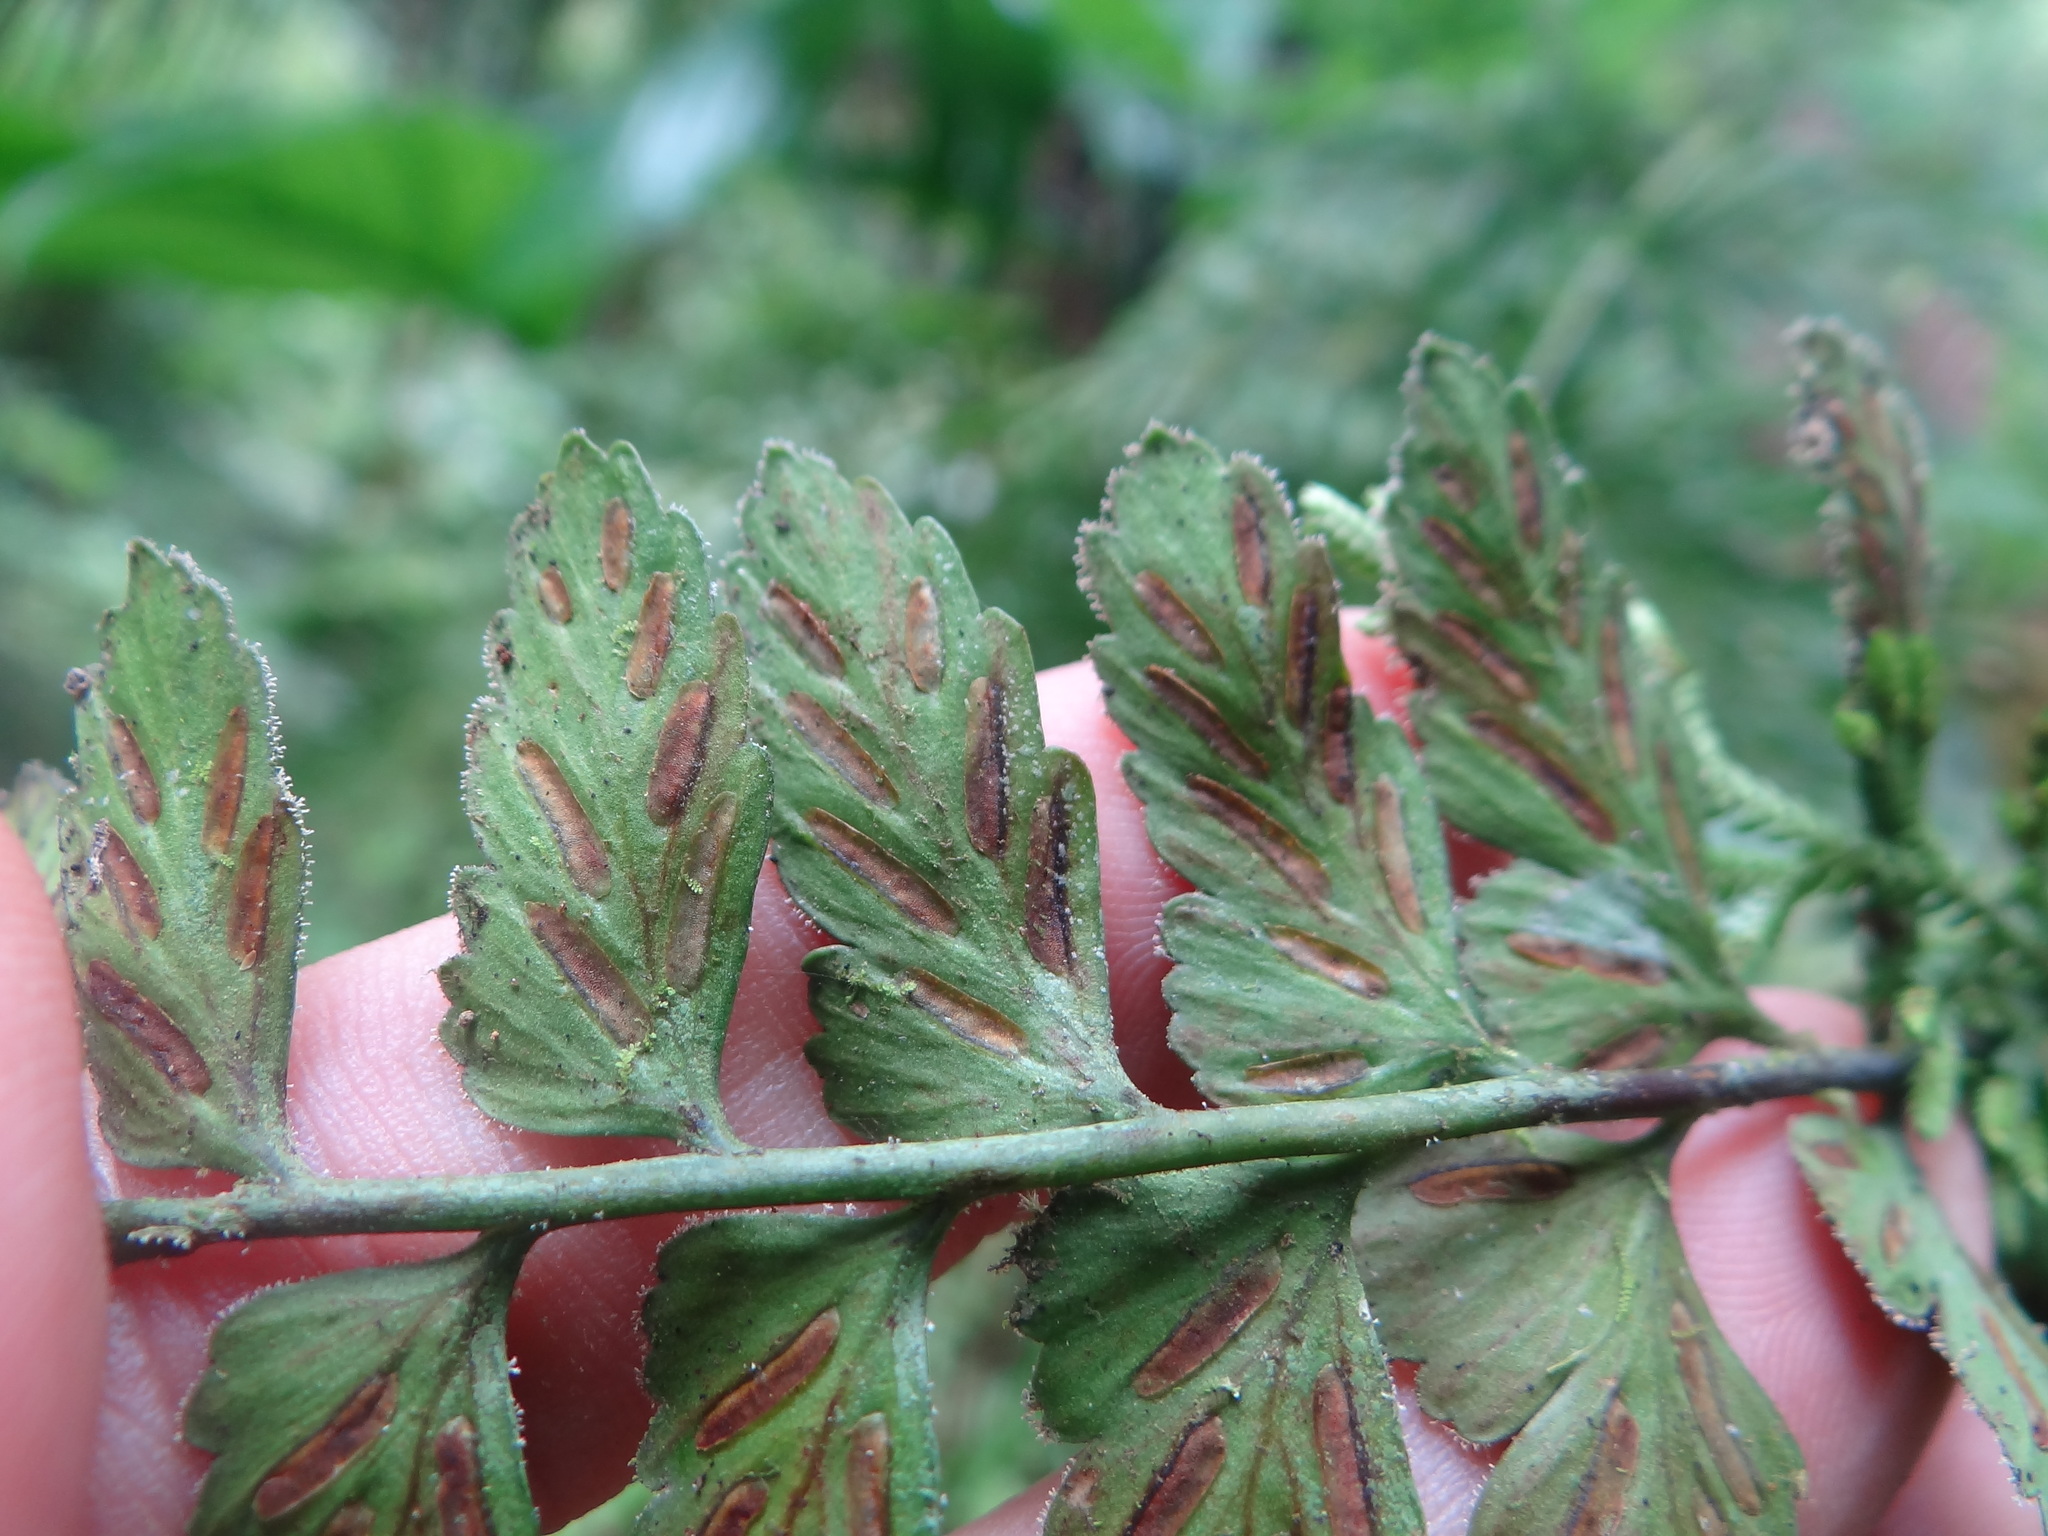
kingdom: Plantae
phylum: Tracheophyta
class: Polypodiopsida
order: Polypodiales
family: Aspleniaceae
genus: Asplenium
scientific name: Asplenium cuneatiforme
